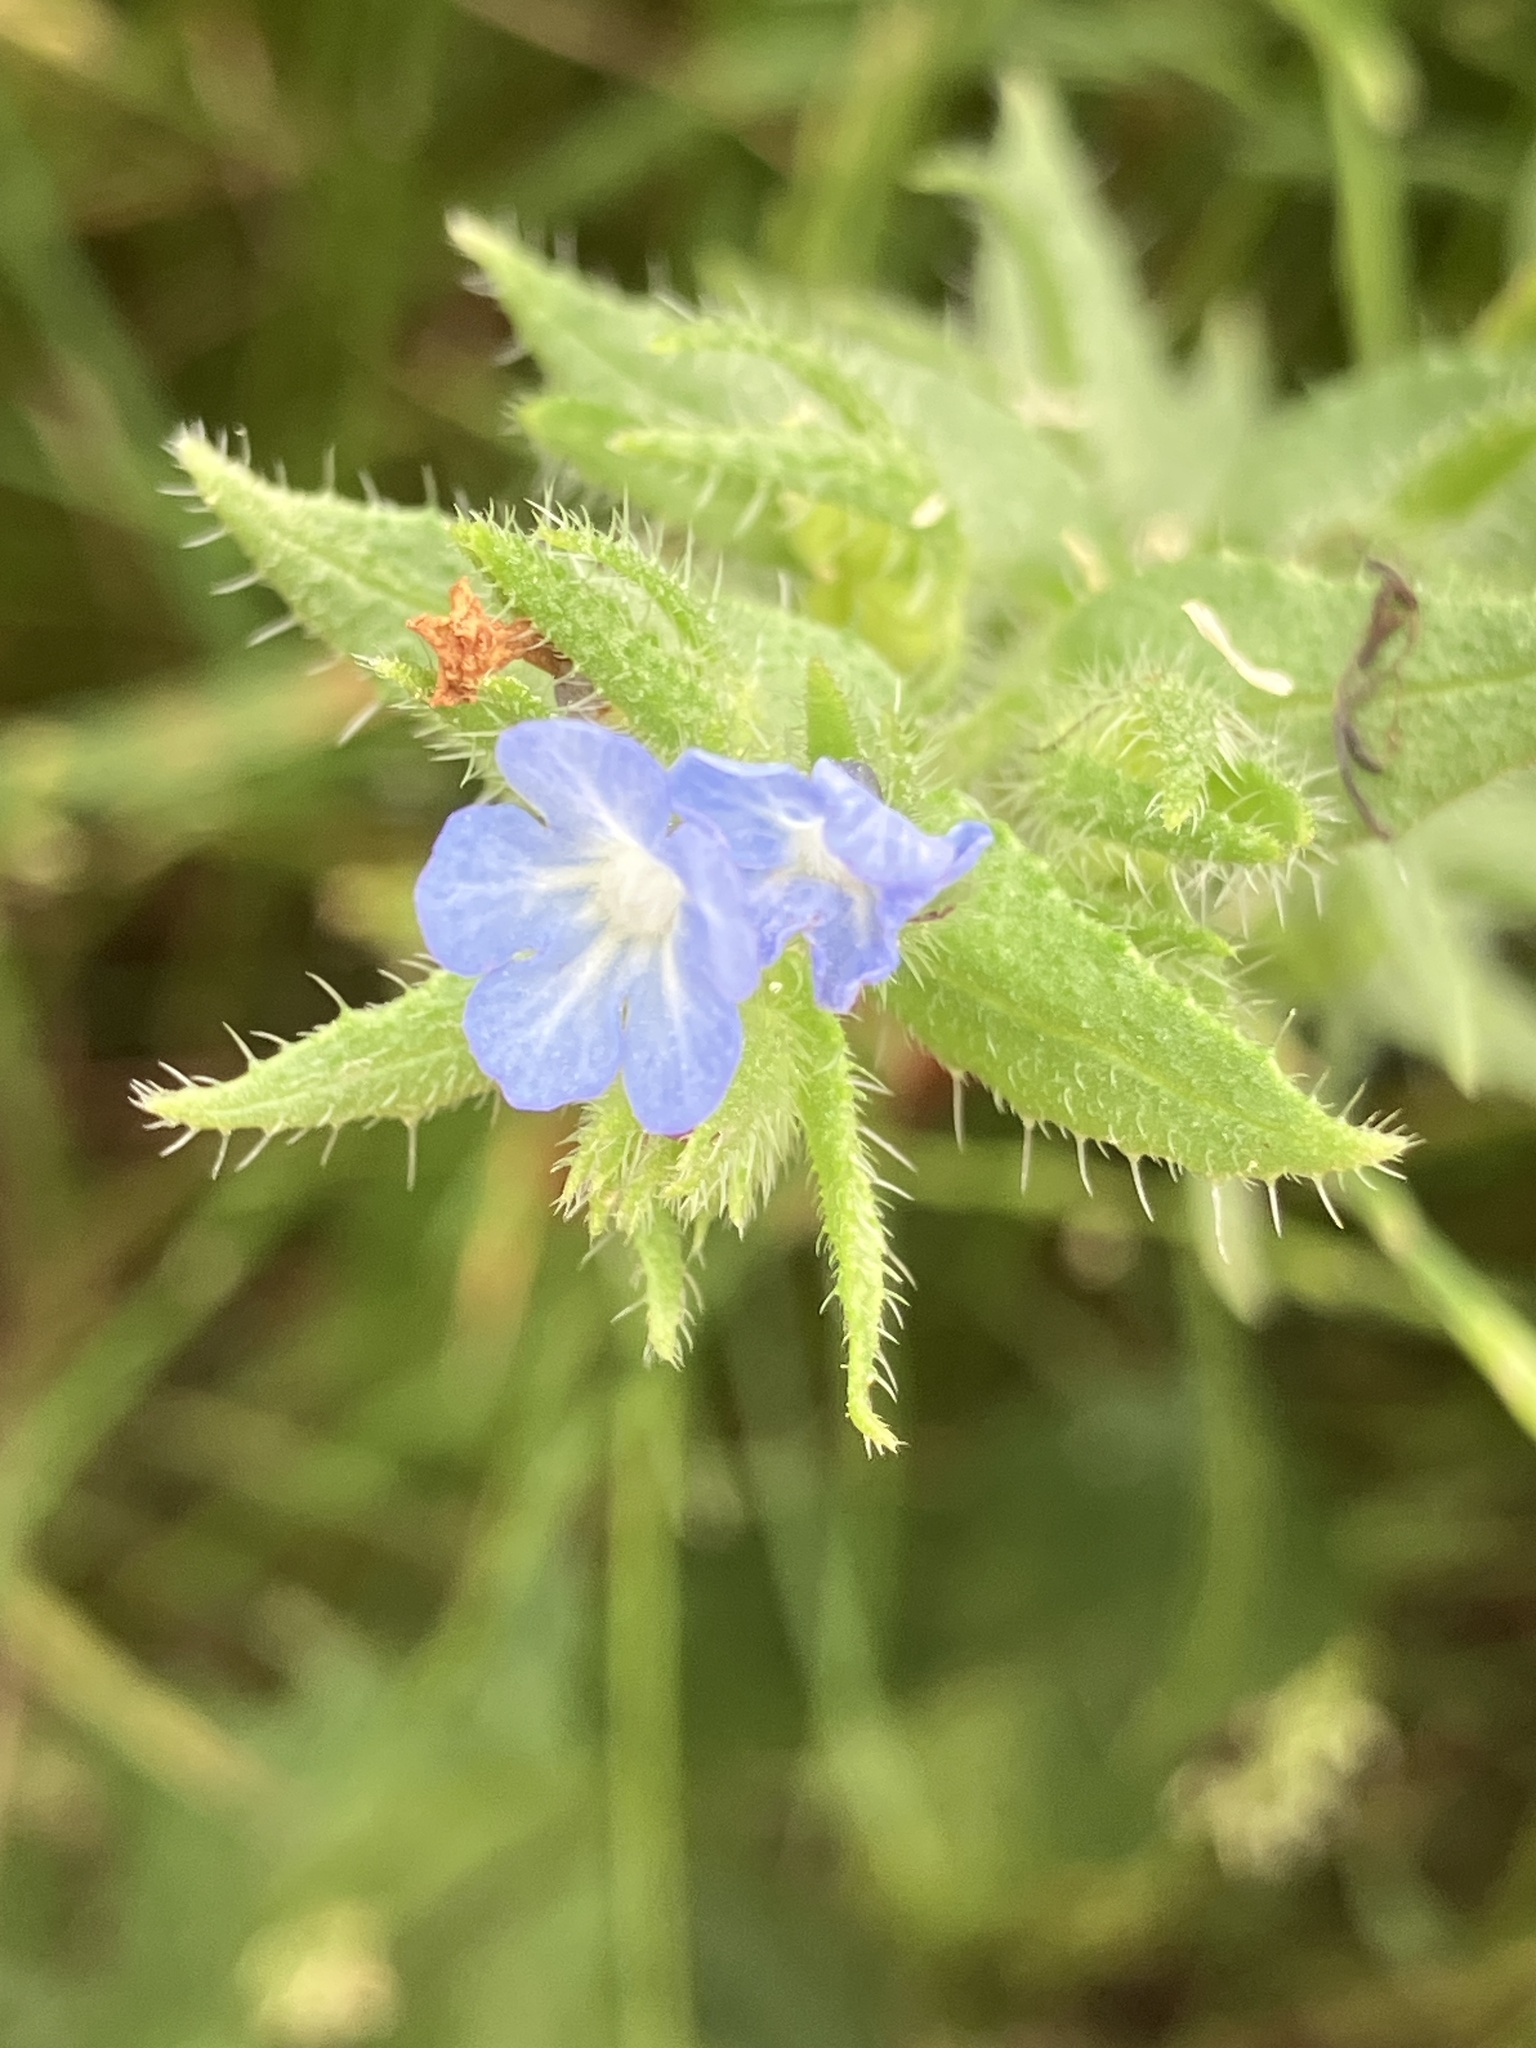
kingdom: Plantae
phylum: Tracheophyta
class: Magnoliopsida
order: Boraginales
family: Boraginaceae
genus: Lycopsis
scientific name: Lycopsis arvensis
